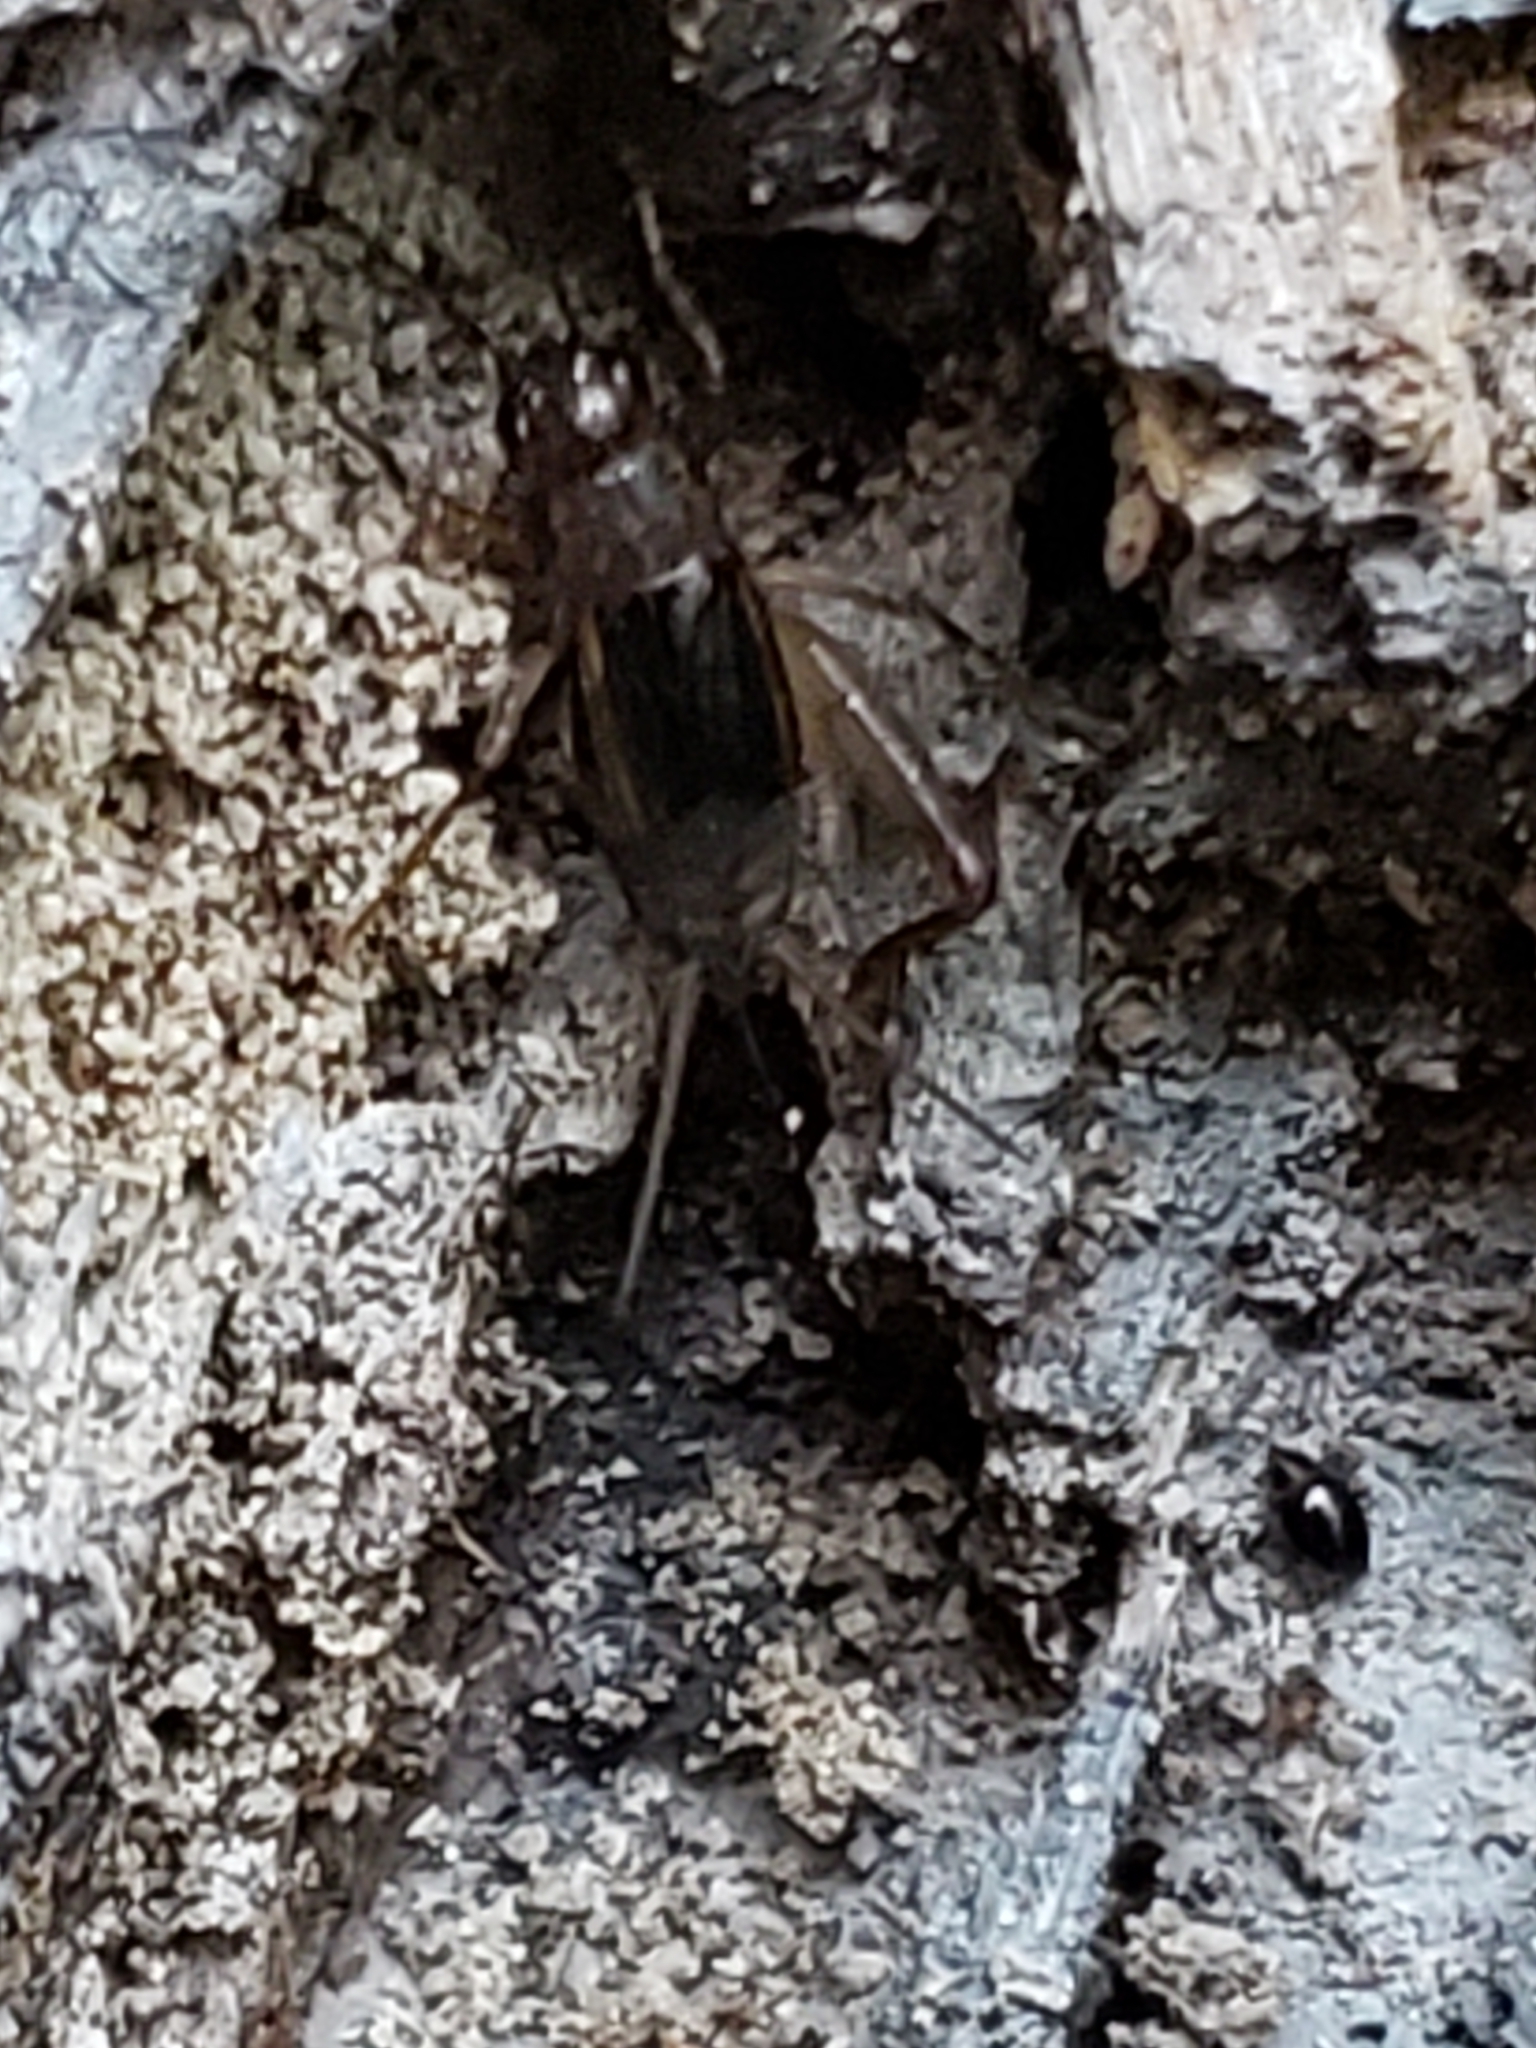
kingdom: Animalia
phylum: Arthropoda
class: Insecta
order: Orthoptera
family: Trigonidiidae
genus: Eunemobius
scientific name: Eunemobius carolinus
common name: Carolina ground cricket
